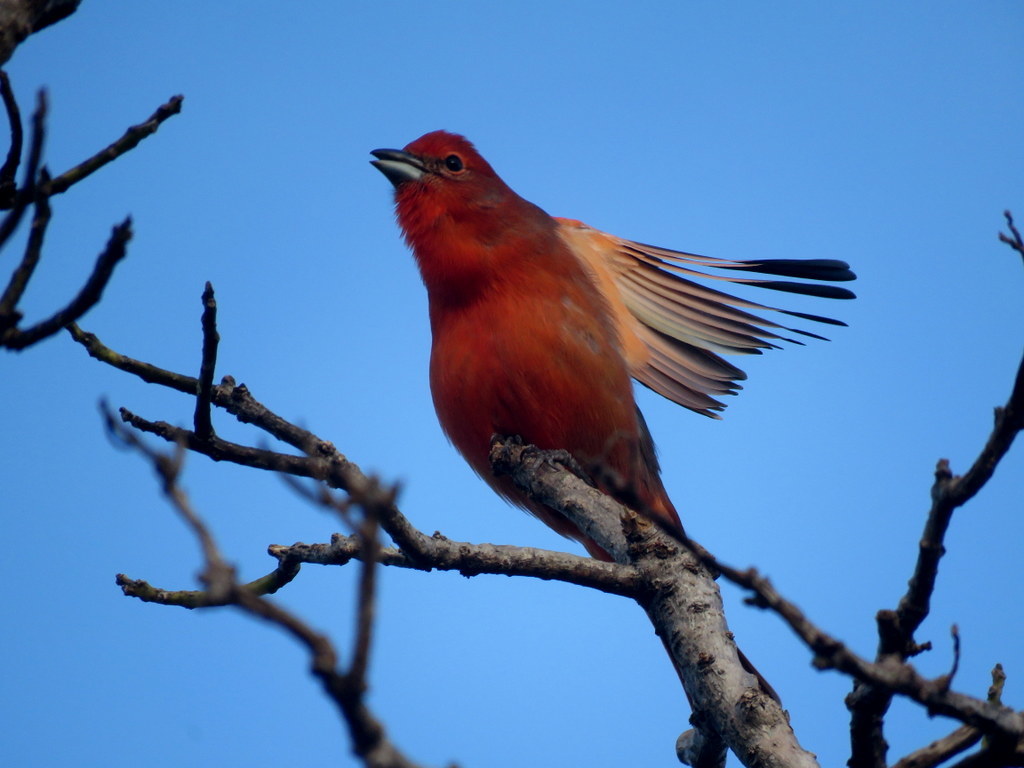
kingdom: Animalia
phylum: Chordata
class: Aves
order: Passeriformes
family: Cardinalidae
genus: Piranga
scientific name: Piranga flava
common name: Red tanager
